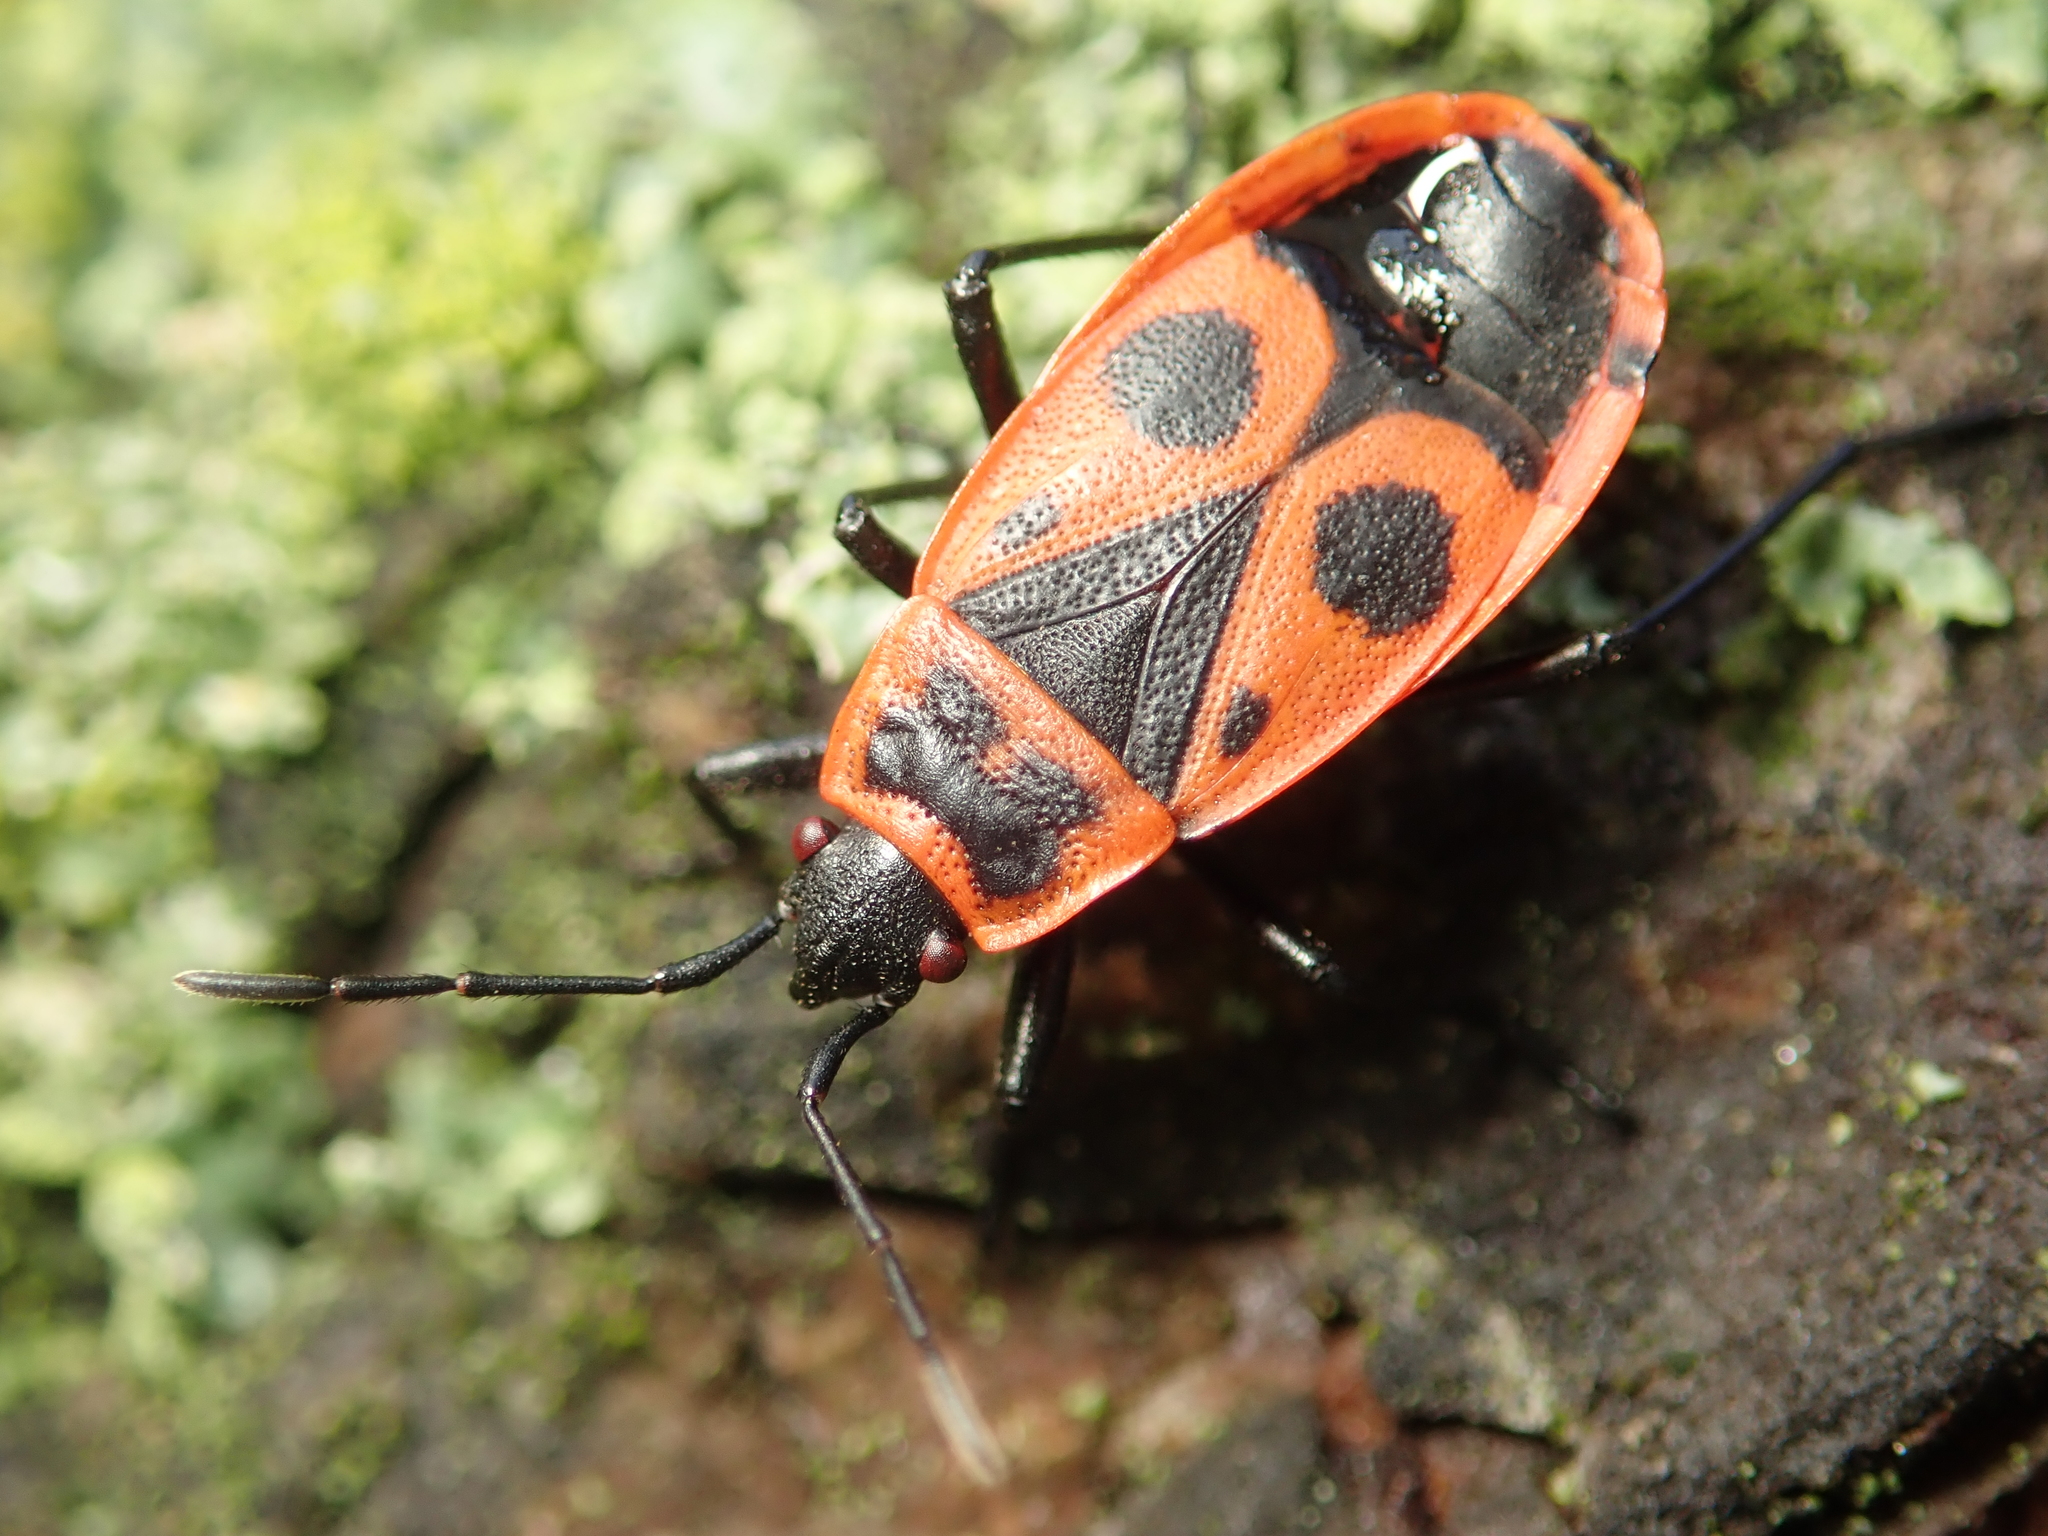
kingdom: Animalia
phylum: Arthropoda
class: Insecta
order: Hemiptera
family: Pyrrhocoridae
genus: Pyrrhocoris
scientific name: Pyrrhocoris apterus
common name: Firebug
